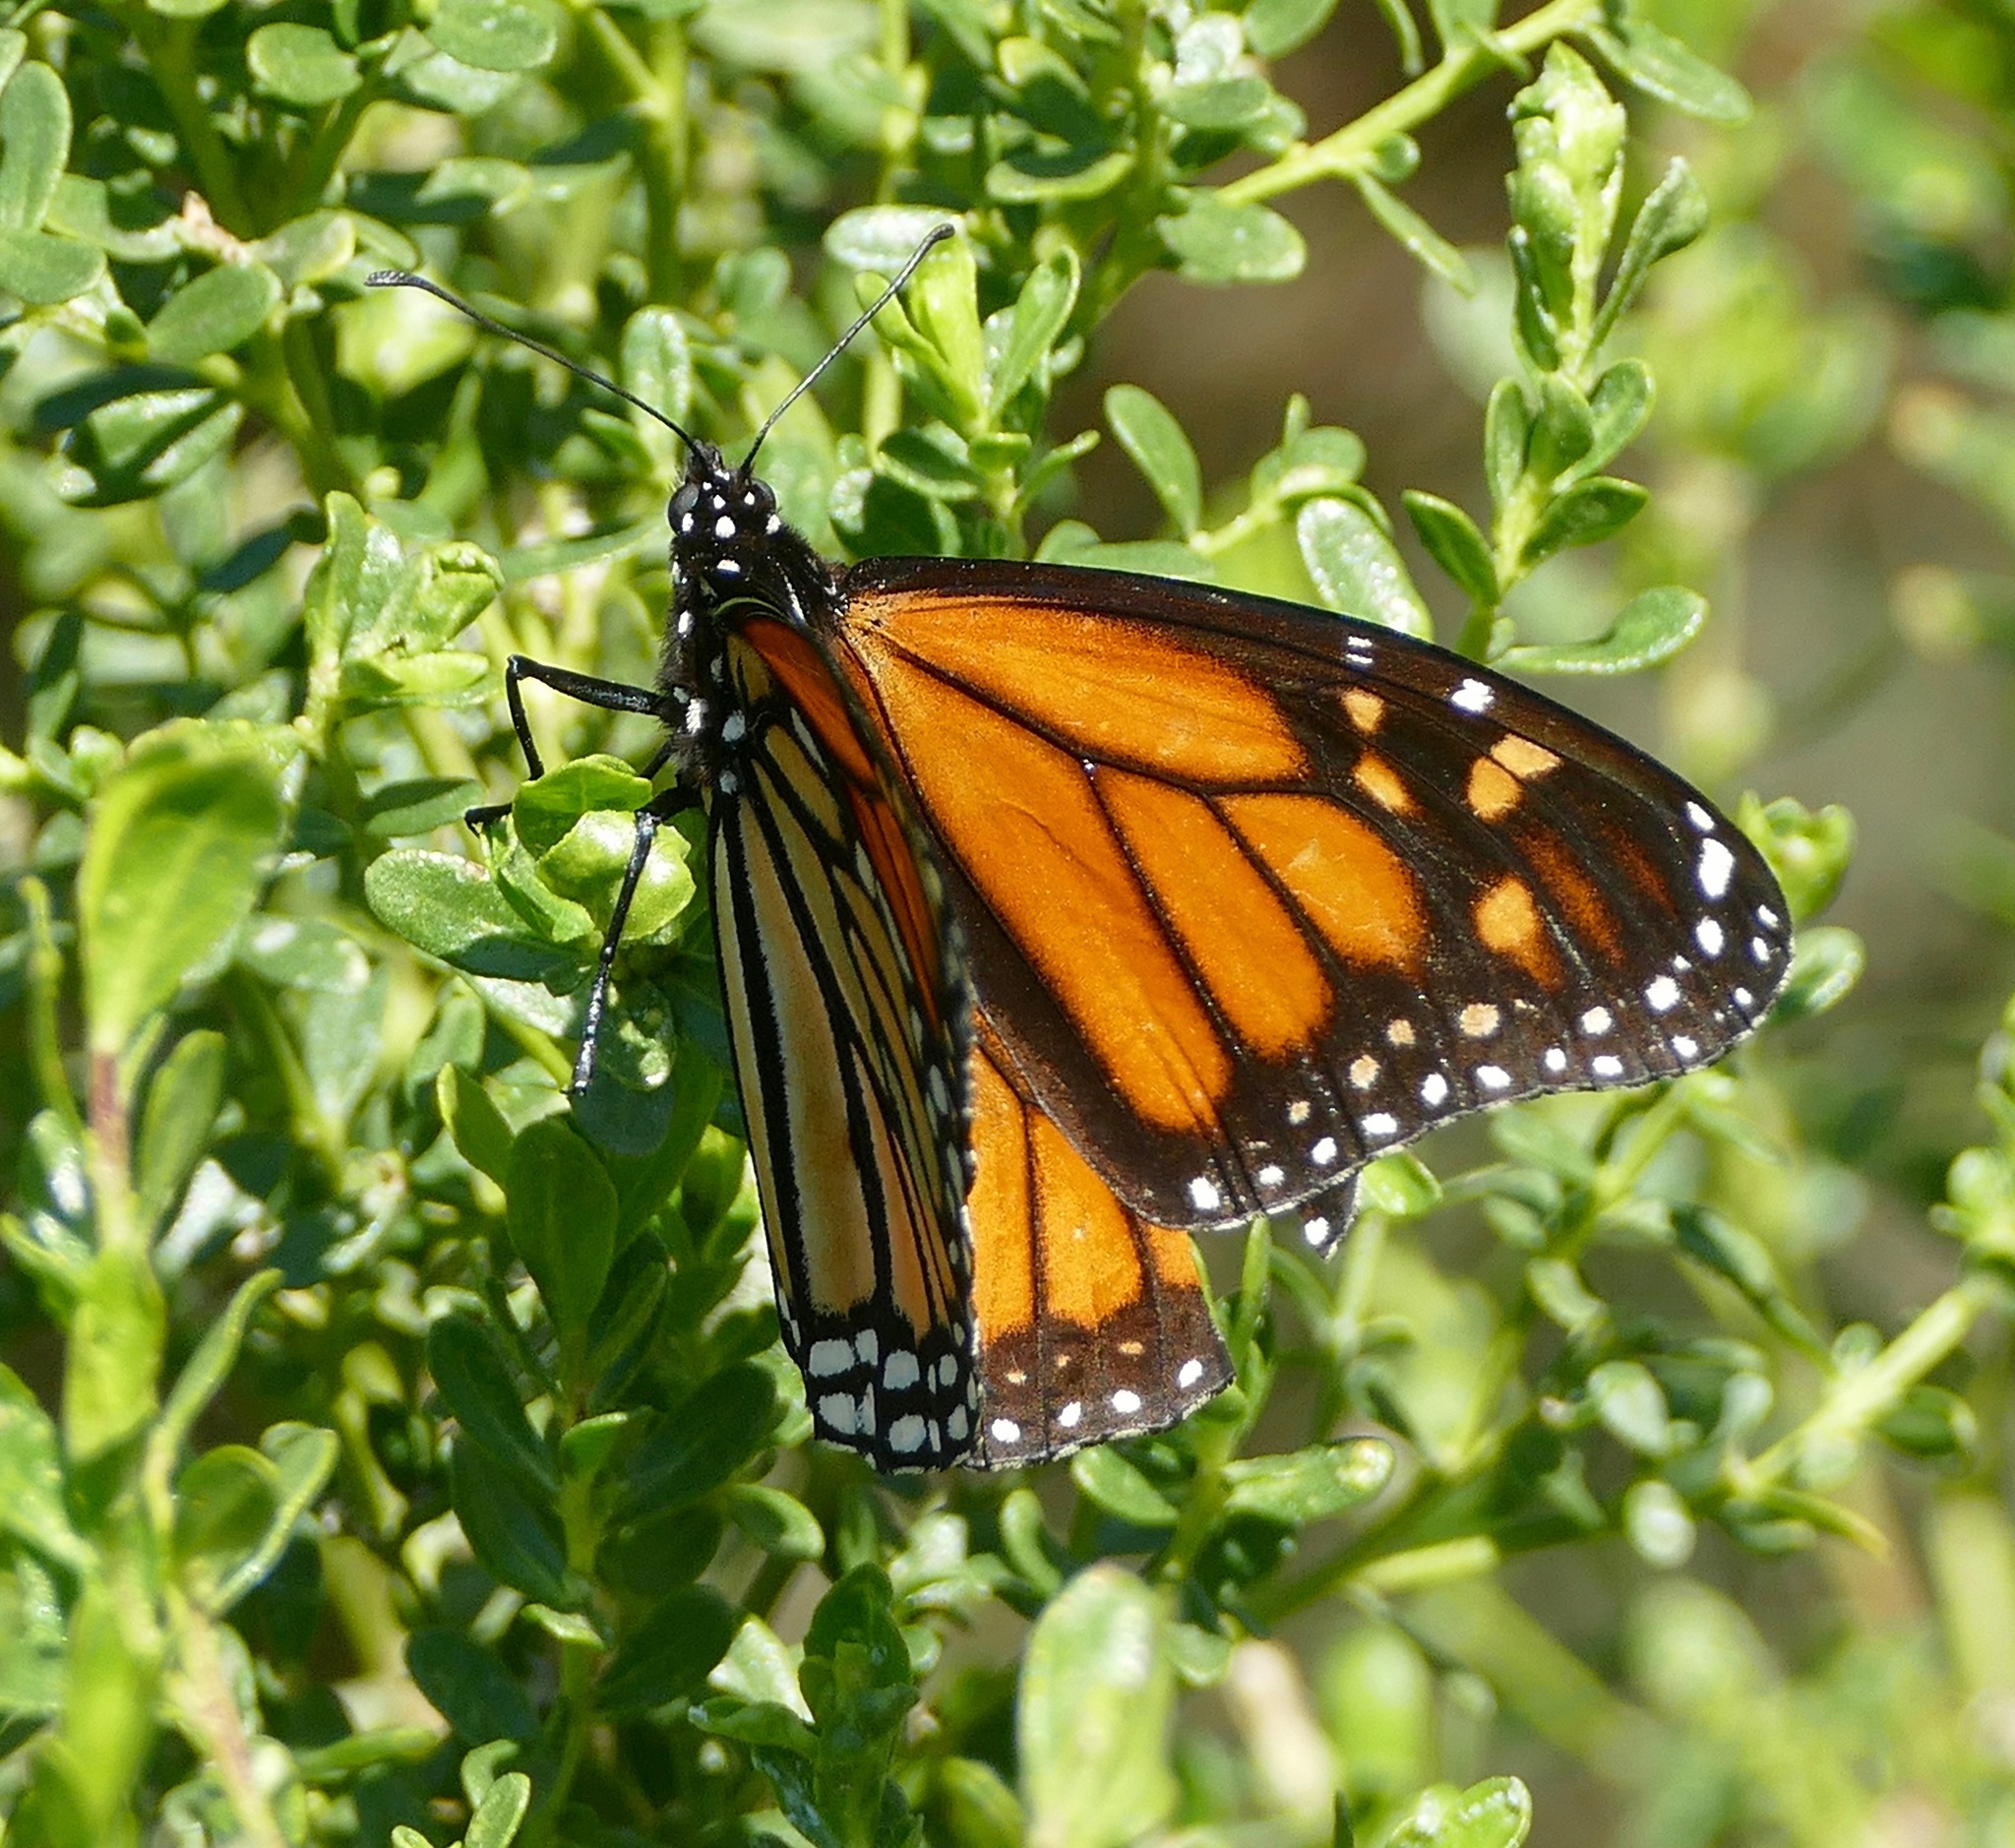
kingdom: Animalia
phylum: Arthropoda
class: Insecta
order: Lepidoptera
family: Nymphalidae
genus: Danaus
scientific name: Danaus plexippus
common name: Monarch
